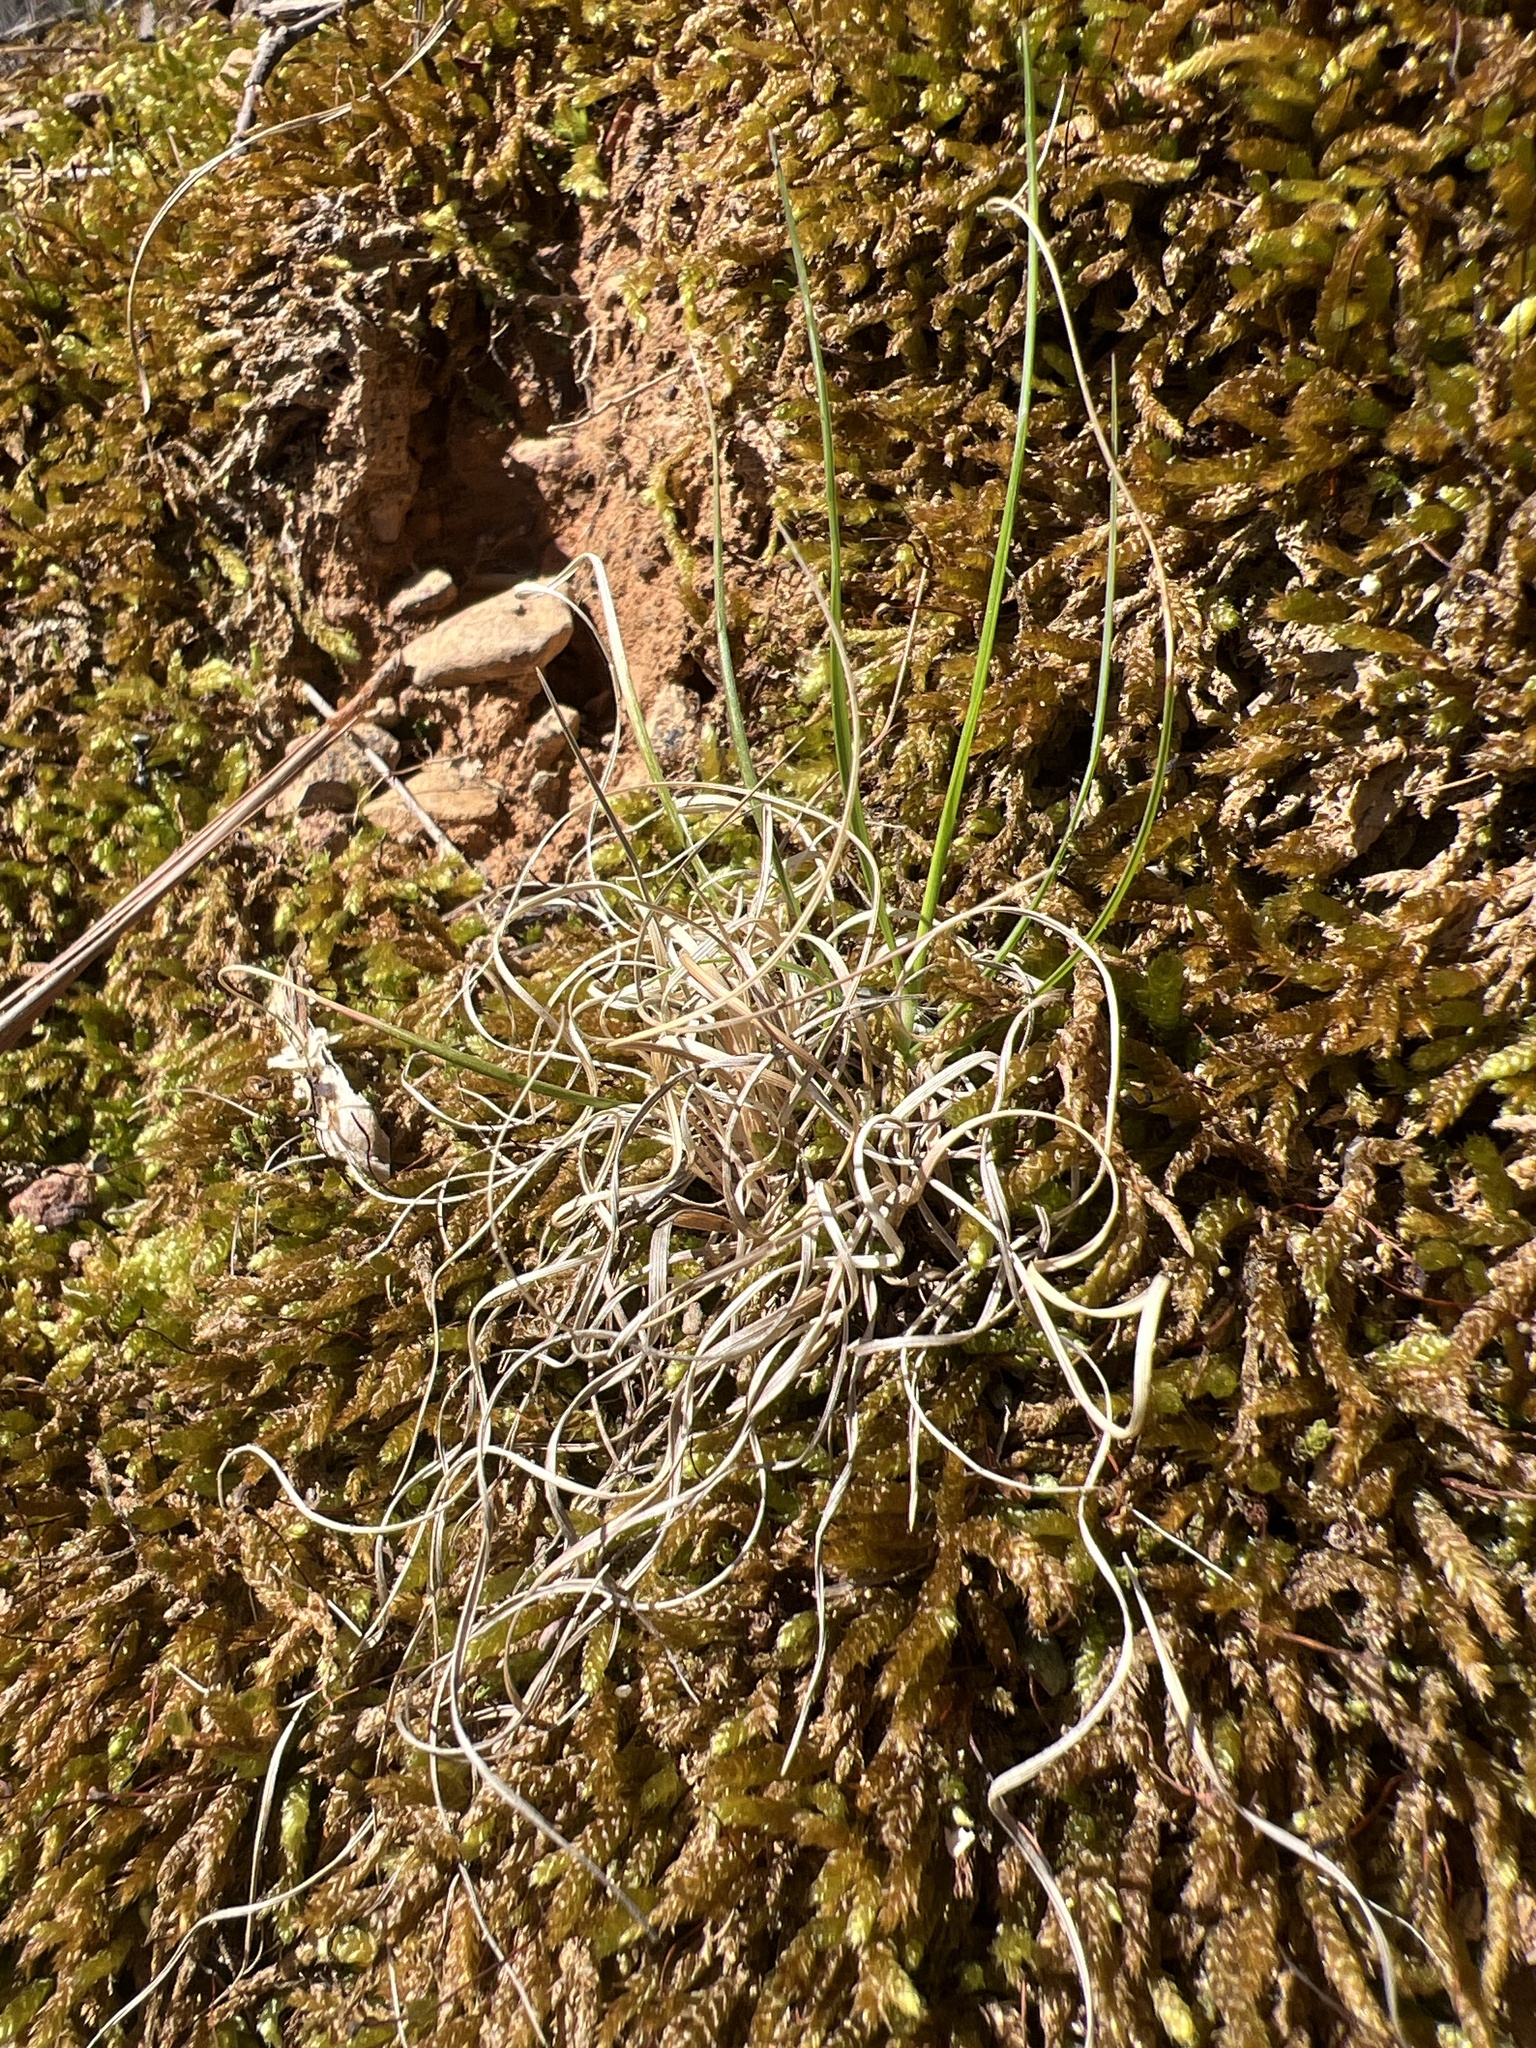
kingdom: Plantae
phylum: Tracheophyta
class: Liliopsida
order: Poales
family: Poaceae
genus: Danthonia
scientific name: Danthonia spicata
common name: Common wild oatgrass
